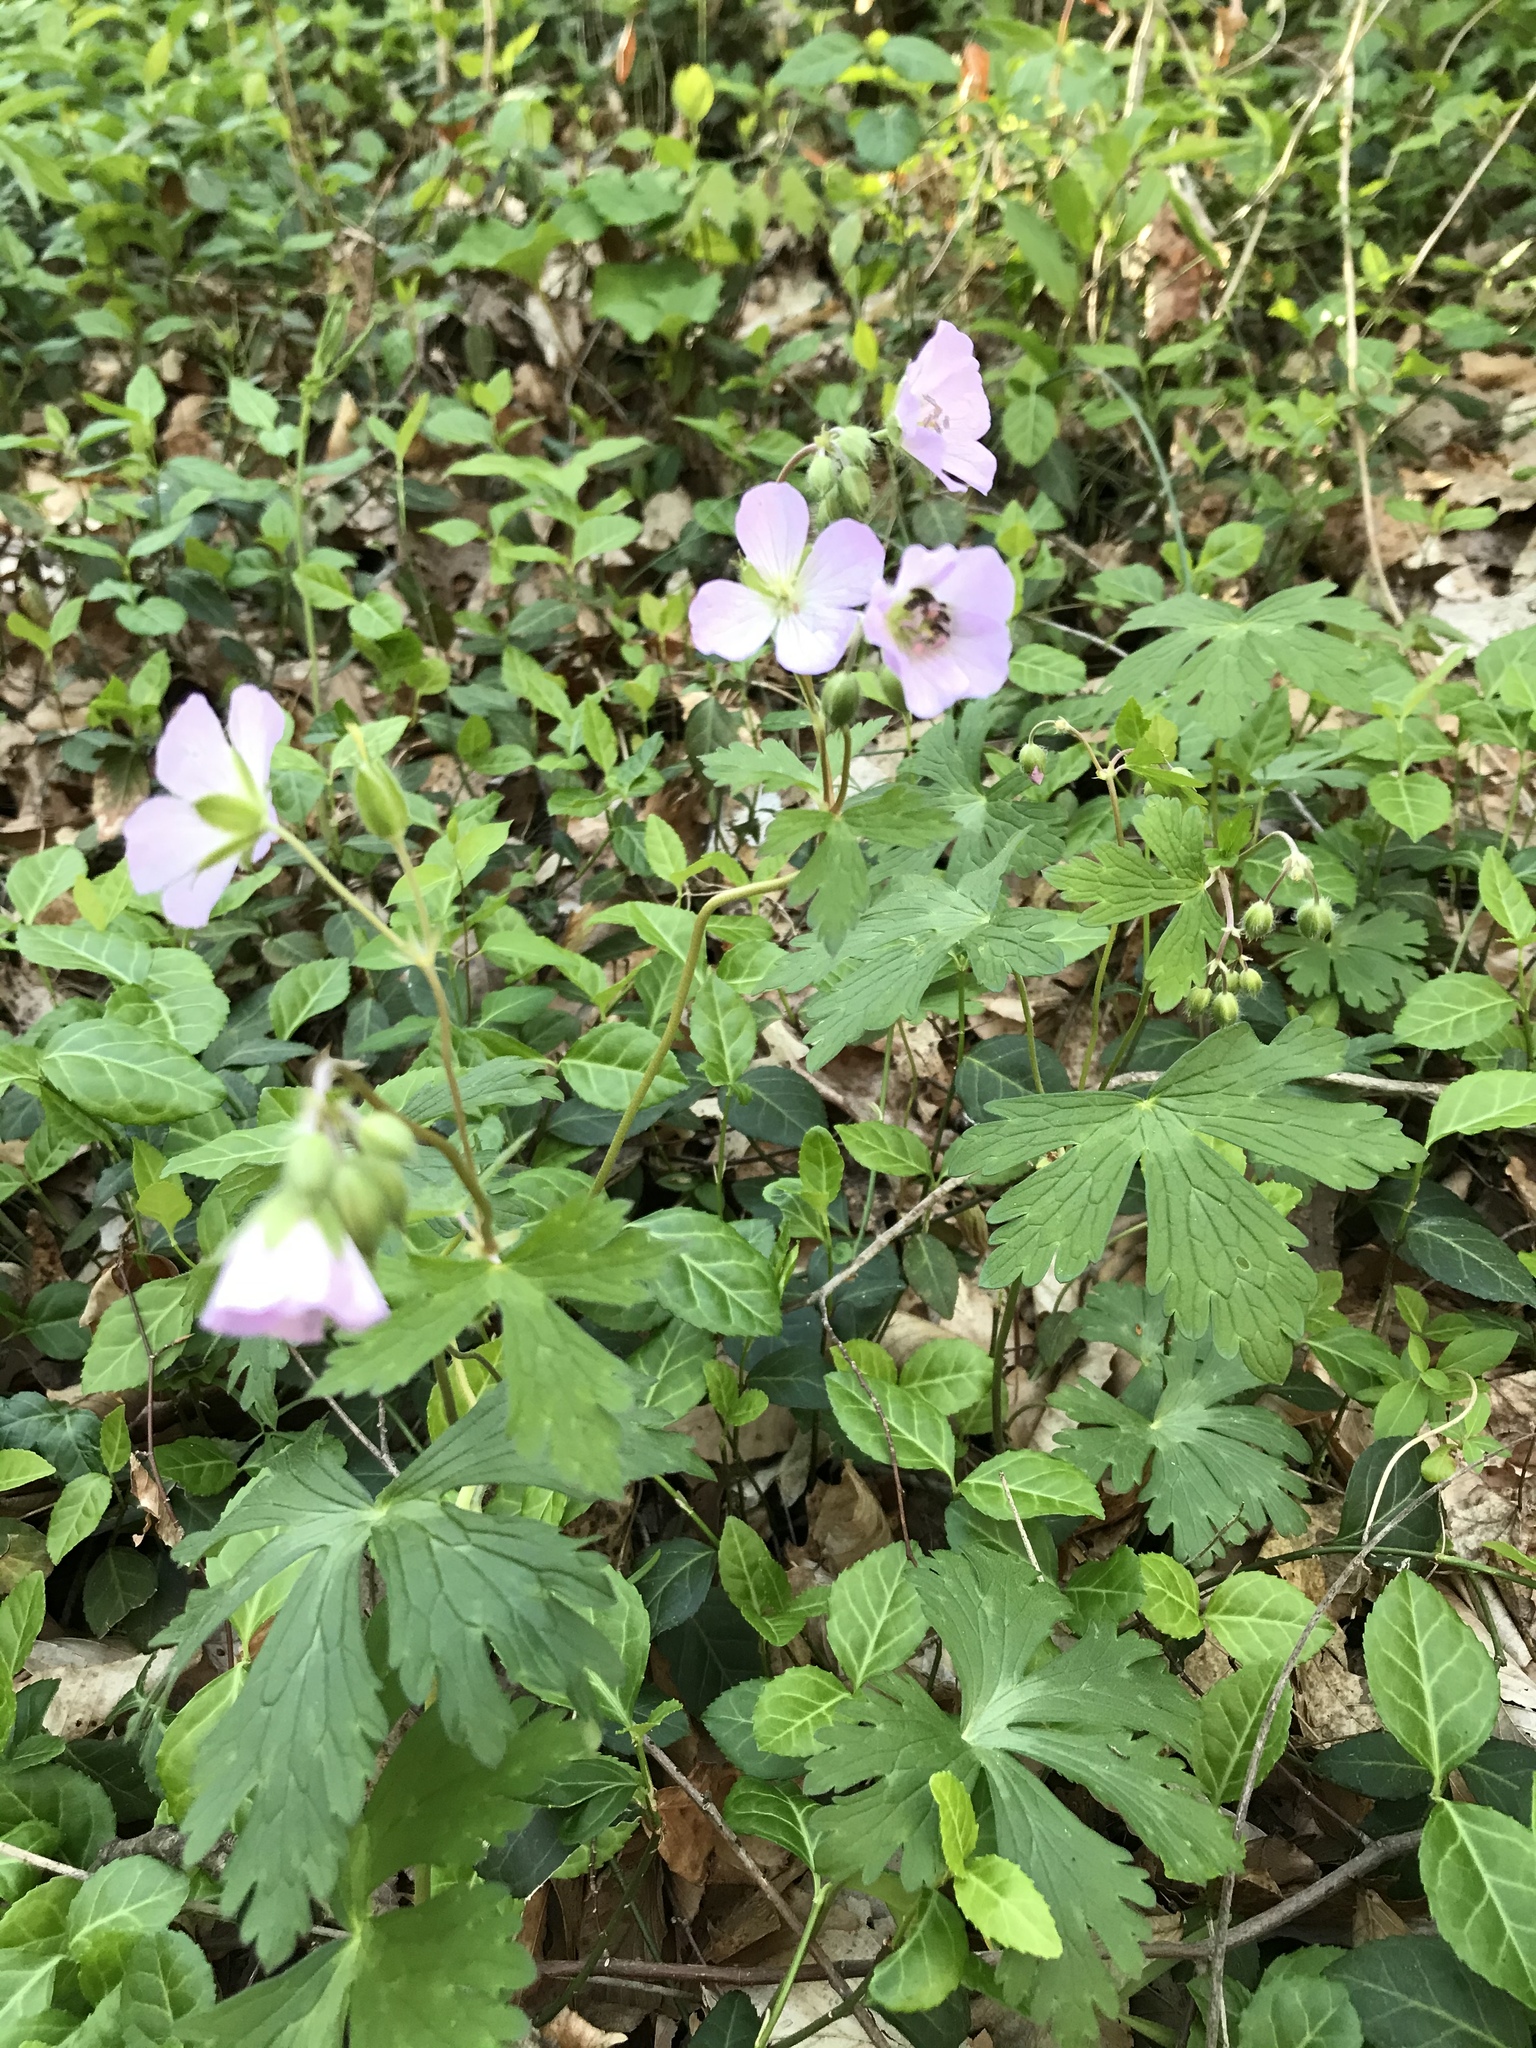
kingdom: Plantae
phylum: Tracheophyta
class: Magnoliopsida
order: Geraniales
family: Geraniaceae
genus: Geranium
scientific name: Geranium maculatum
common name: Spotted geranium
